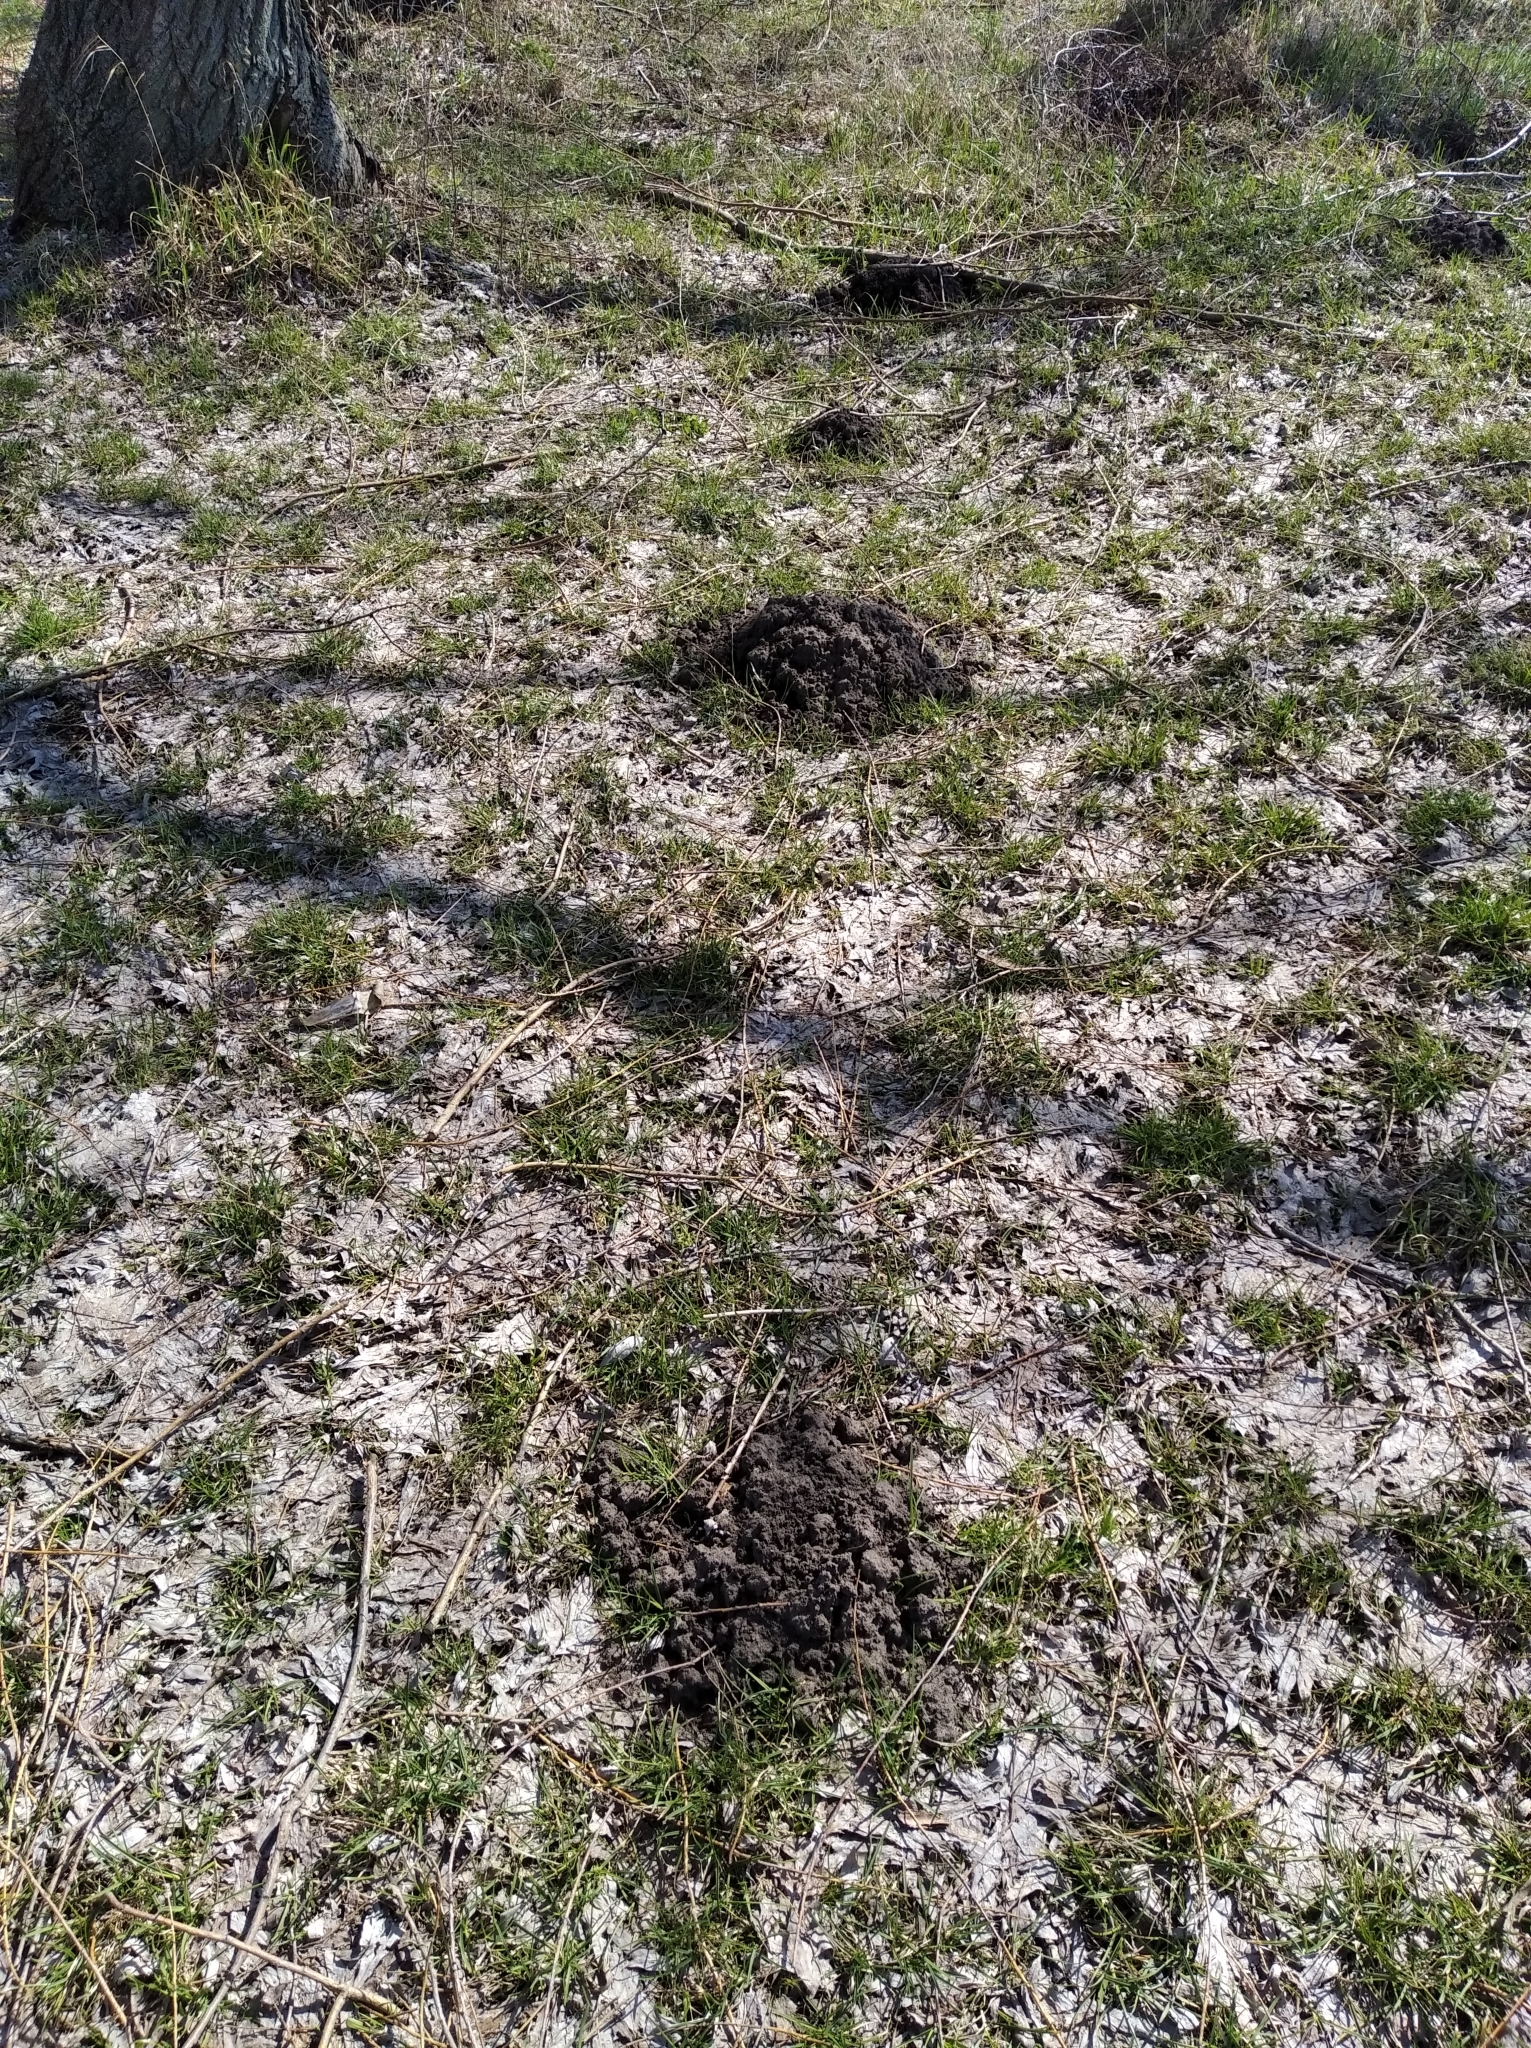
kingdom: Animalia
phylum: Chordata
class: Mammalia
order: Soricomorpha
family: Talpidae
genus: Talpa
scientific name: Talpa europaea
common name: European mole
